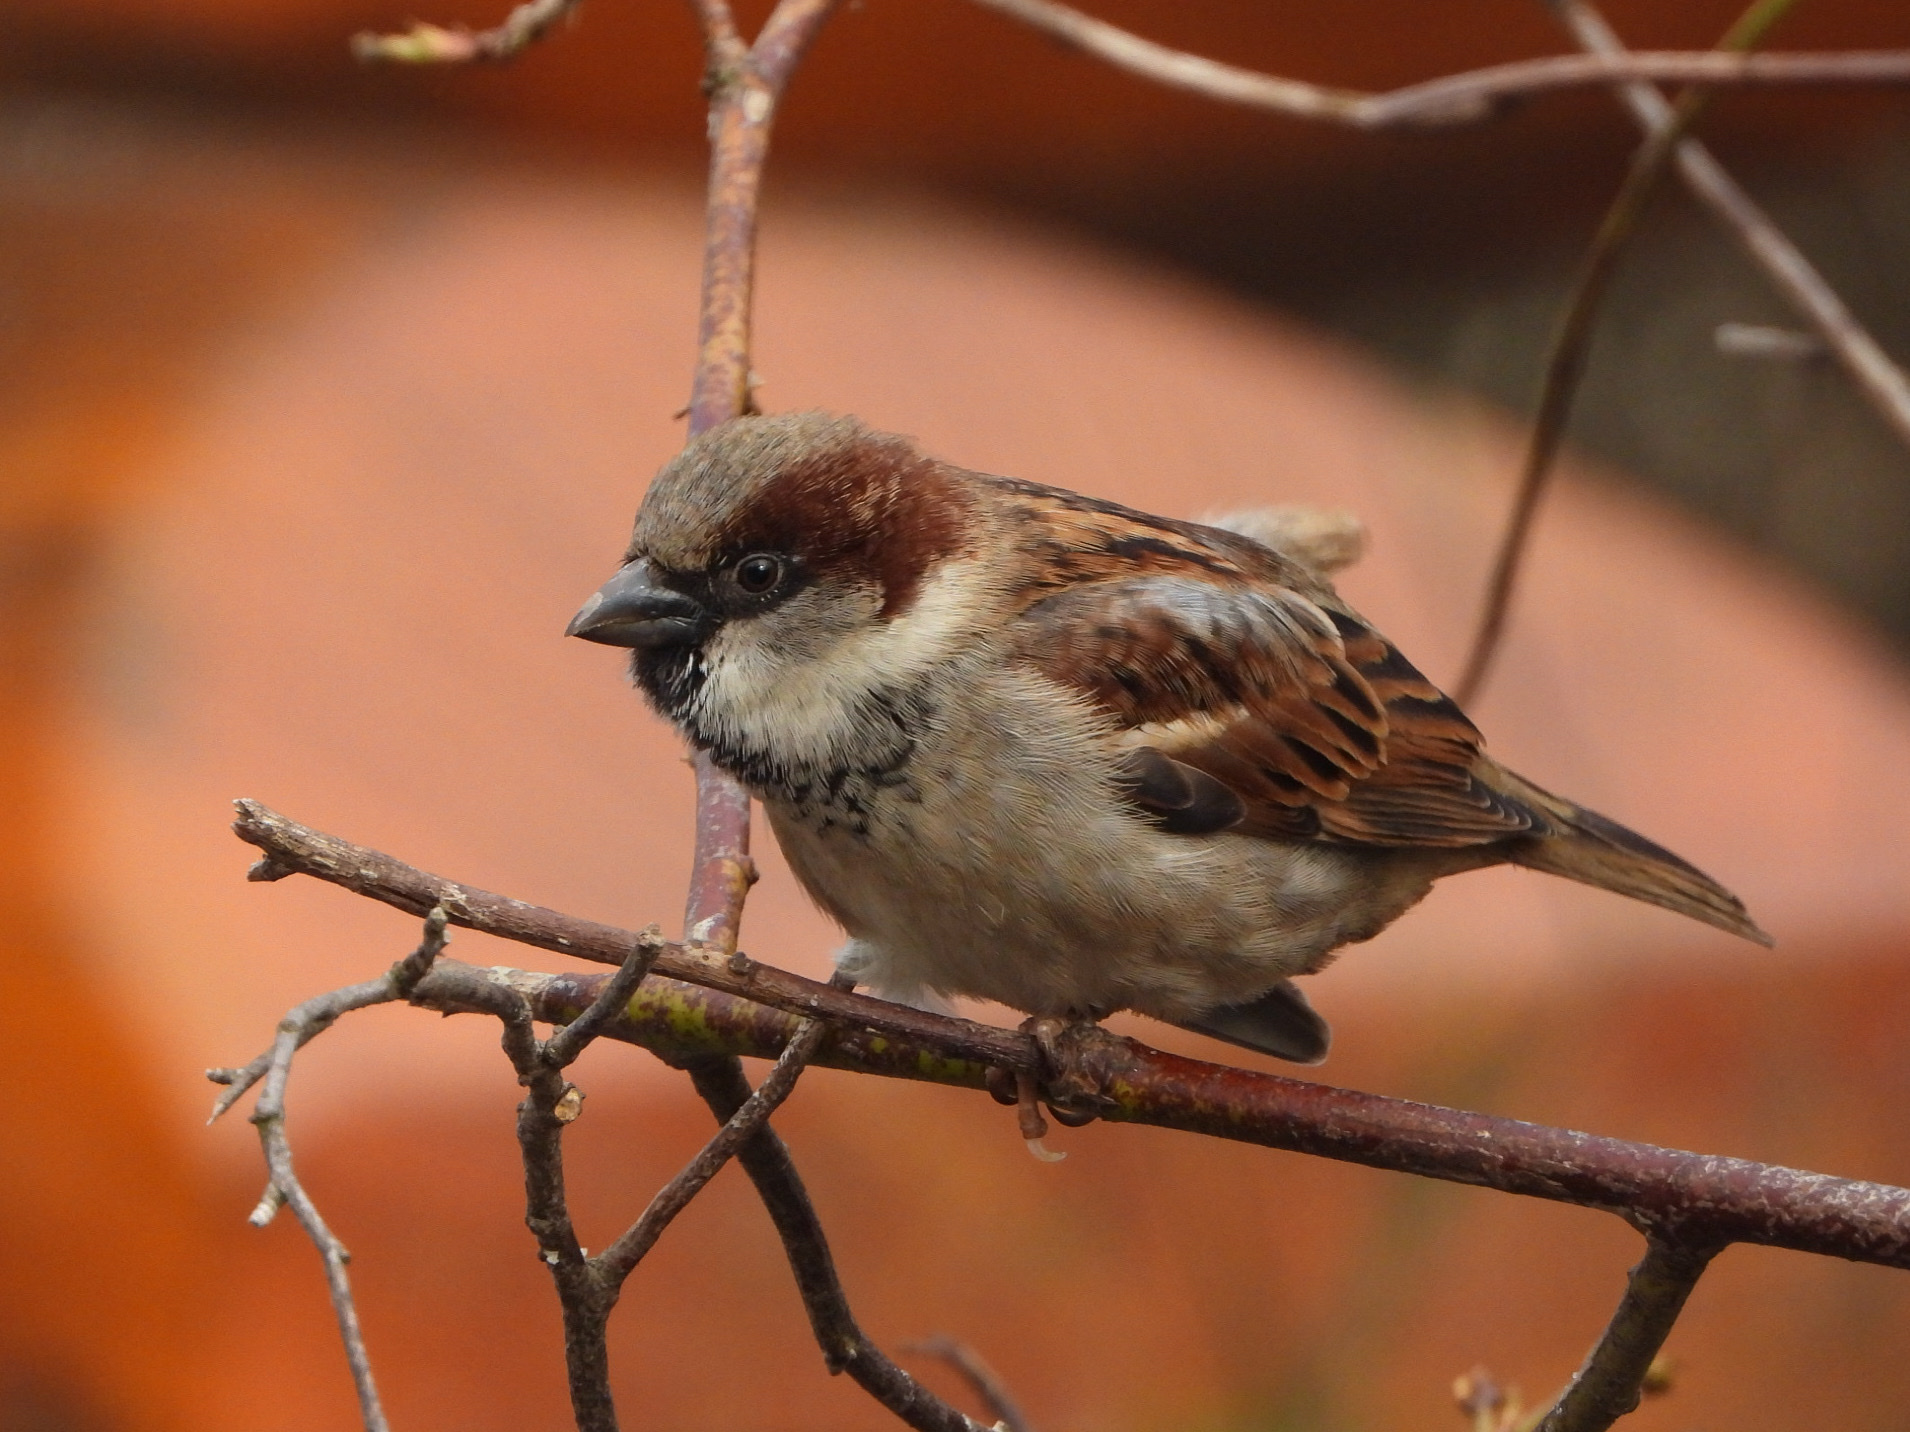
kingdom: Animalia
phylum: Chordata
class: Aves
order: Passeriformes
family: Passeridae
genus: Passer
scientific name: Passer domesticus
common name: House sparrow
